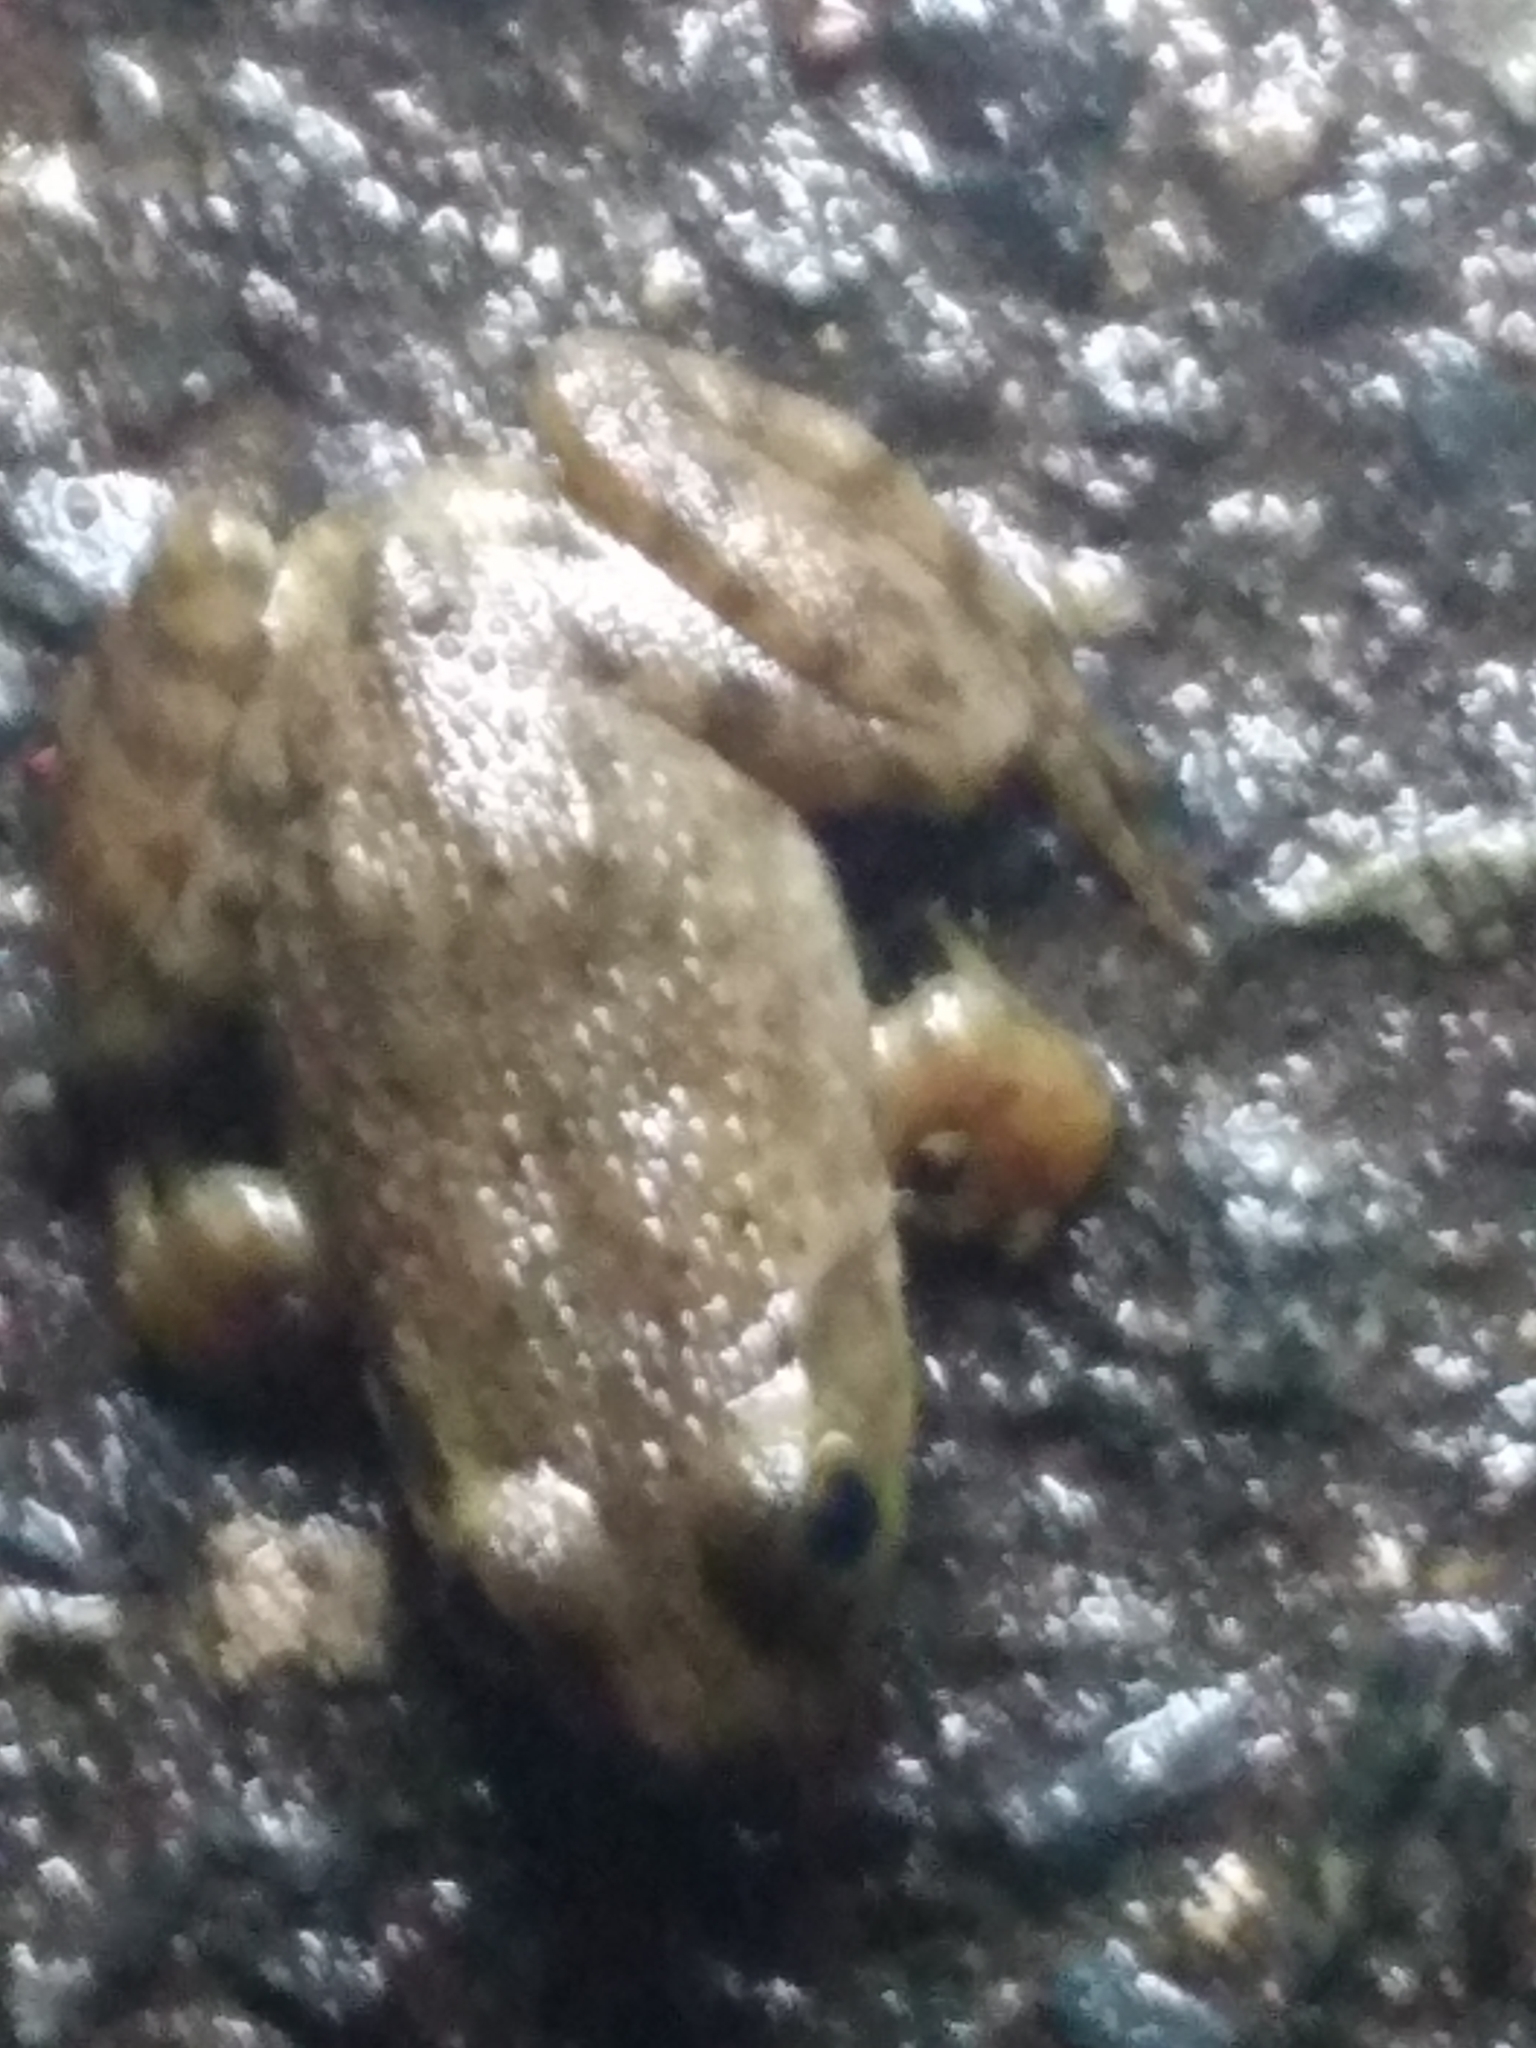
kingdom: Animalia
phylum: Chordata
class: Amphibia
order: Anura
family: Ranidae
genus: Lithobates
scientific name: Lithobates catesbeianus
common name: American bullfrog
